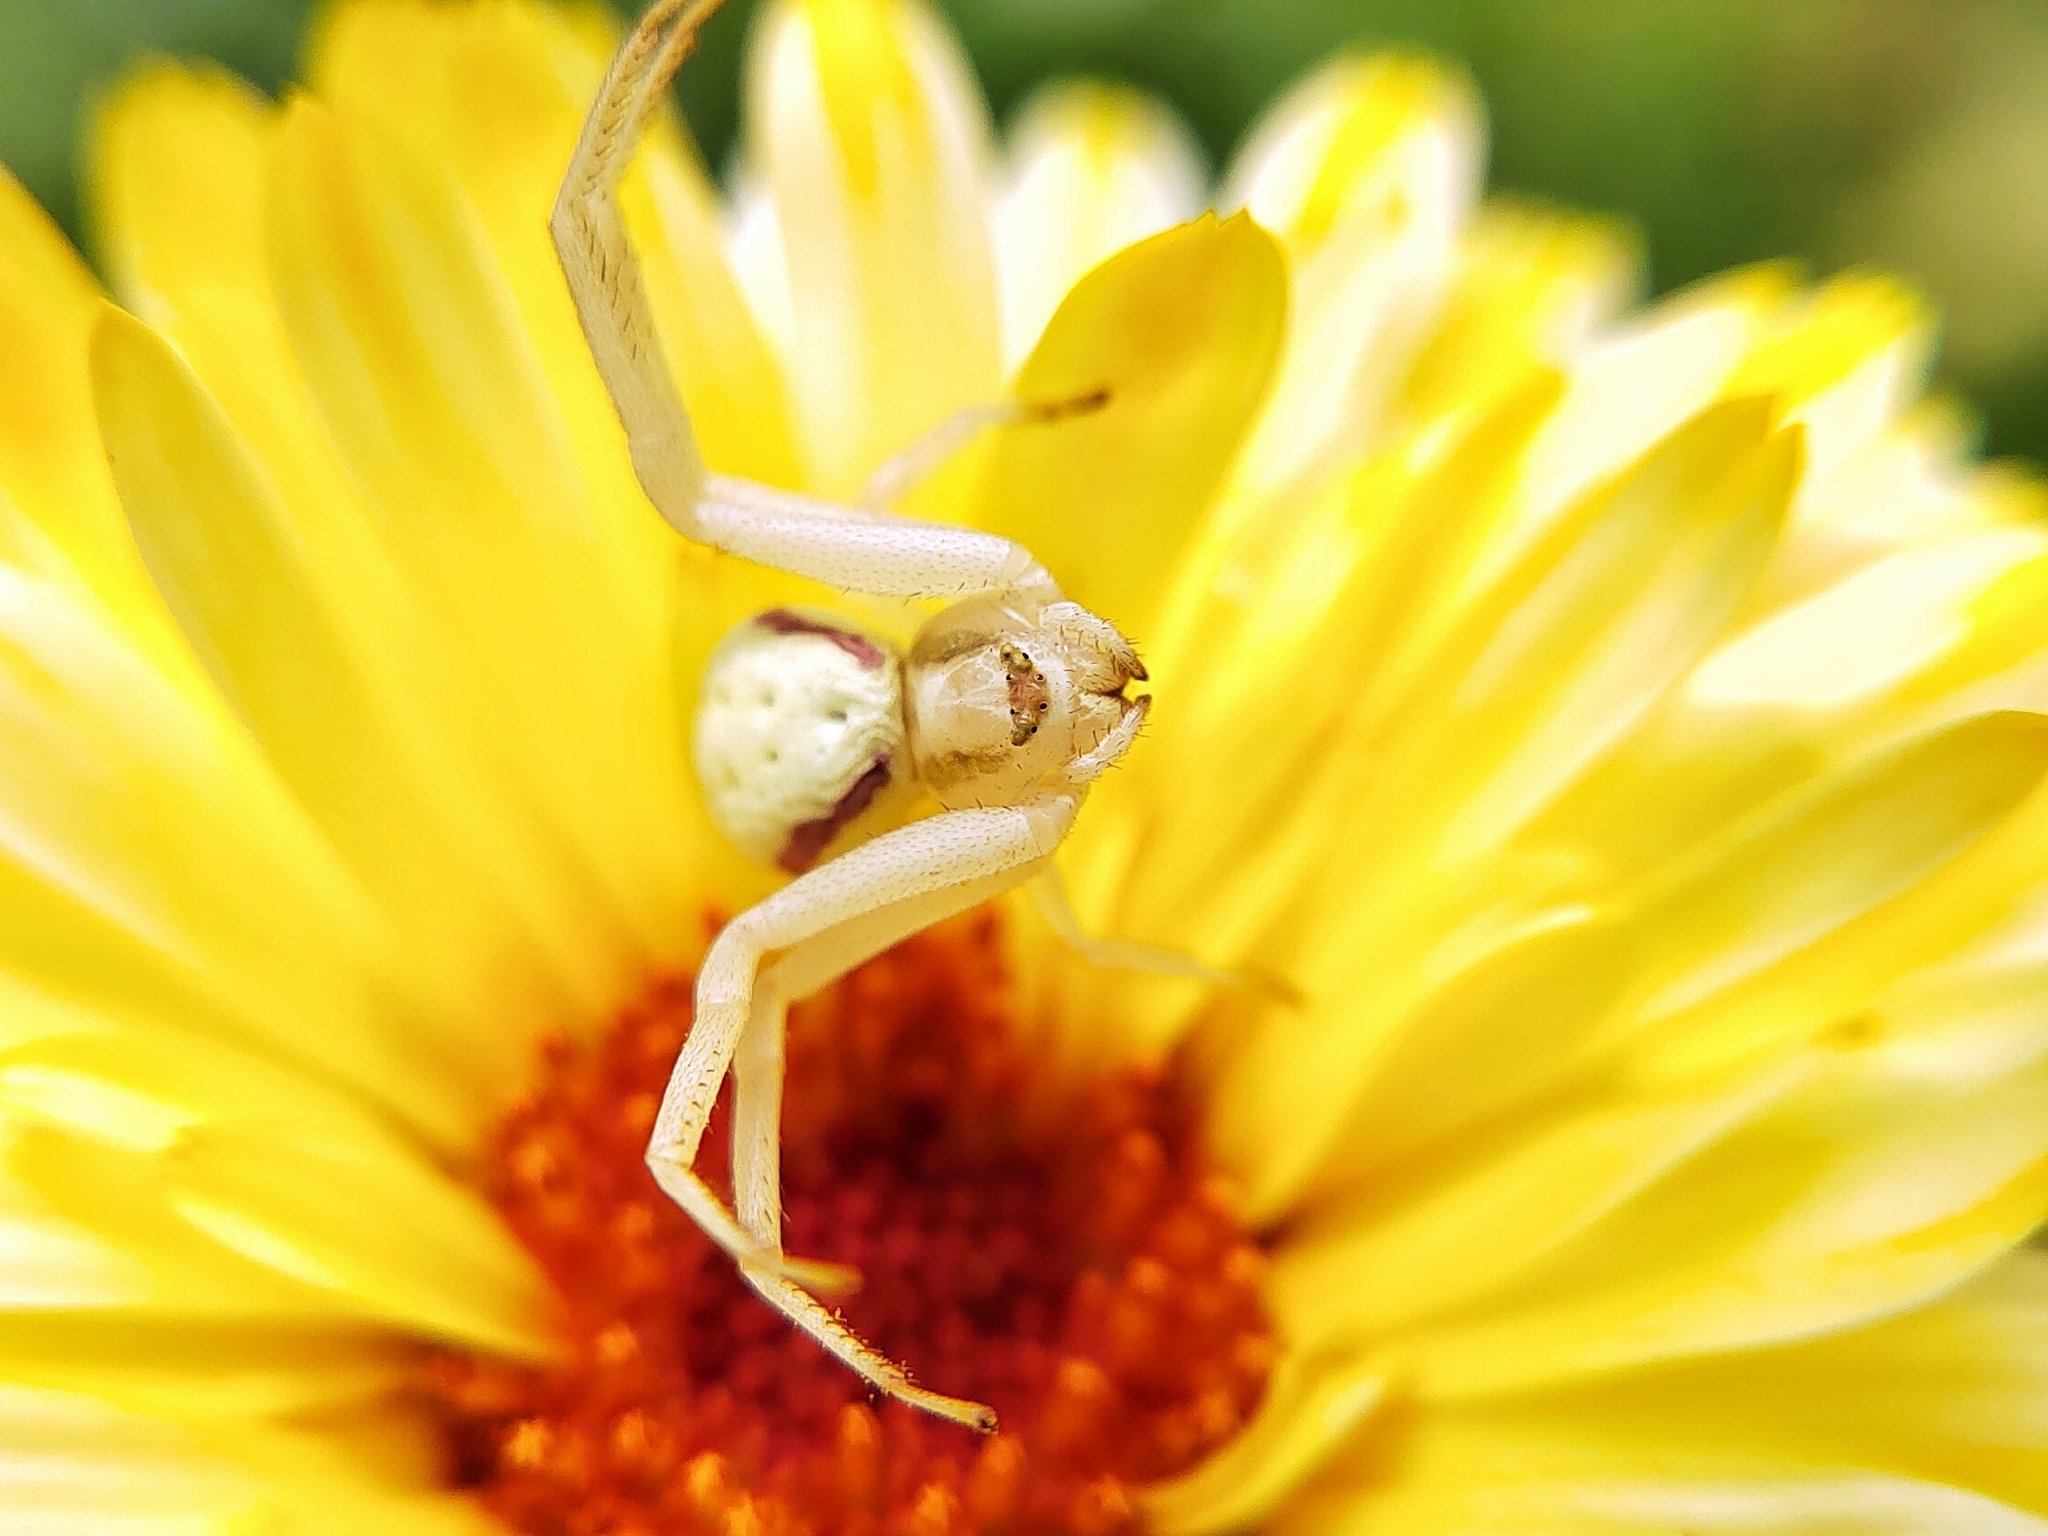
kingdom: Animalia
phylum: Arthropoda
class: Arachnida
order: Araneae
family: Thomisidae
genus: Misumena
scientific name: Misumena vatia
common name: Goldenrod crab spider
